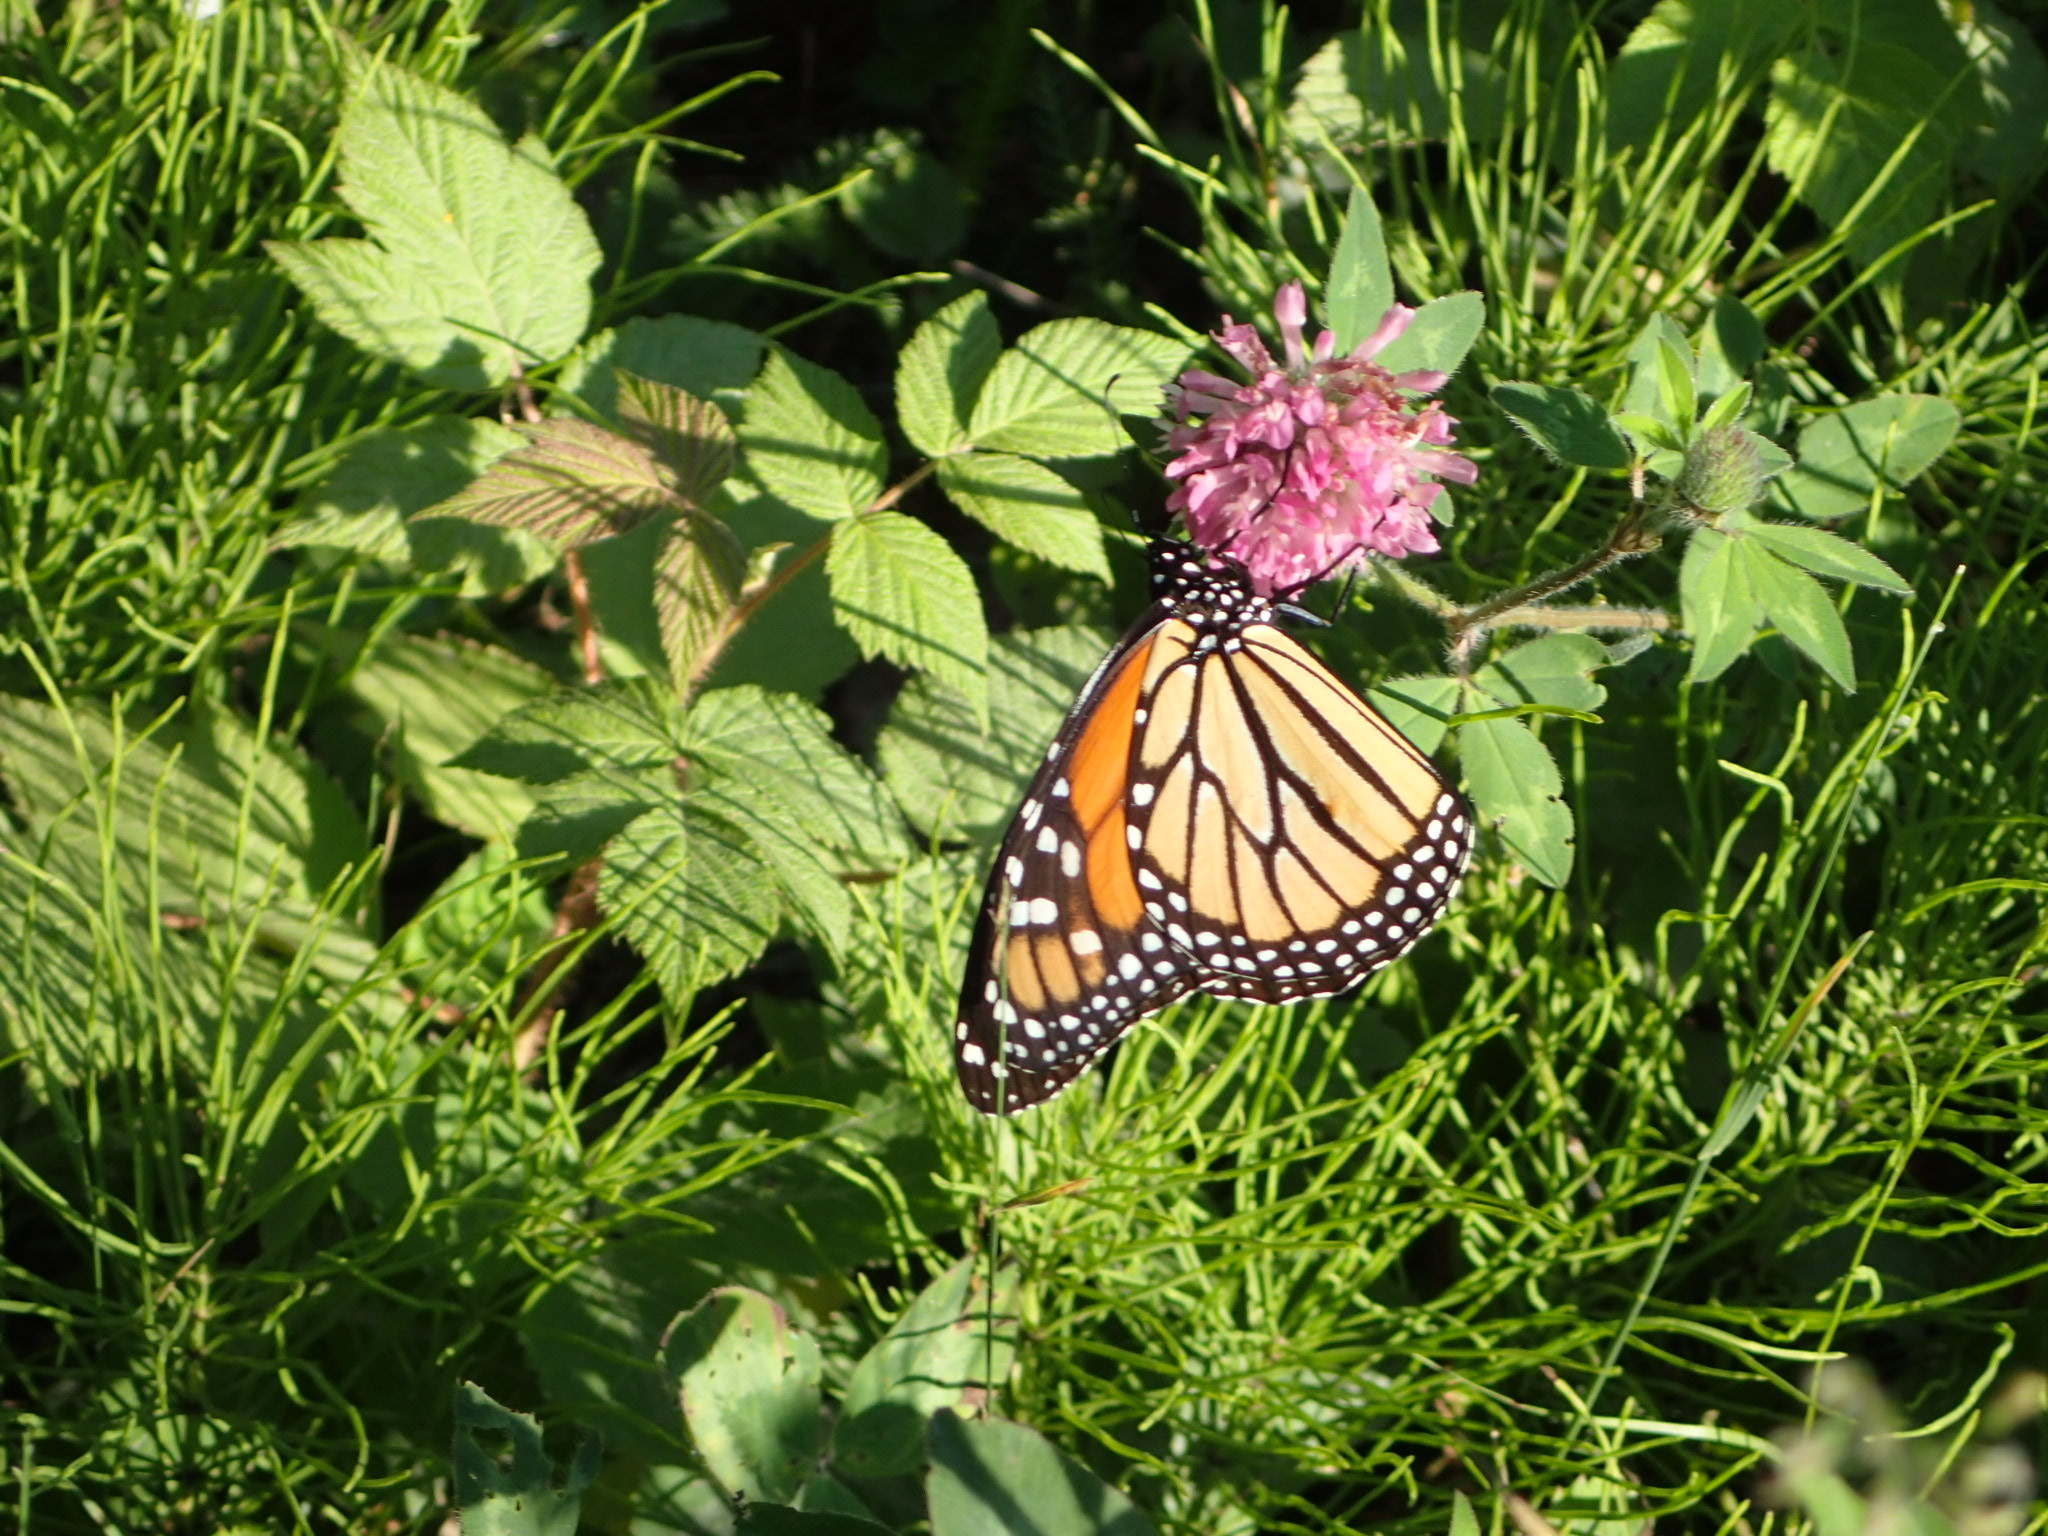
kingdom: Animalia
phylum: Arthropoda
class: Insecta
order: Lepidoptera
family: Nymphalidae
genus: Danaus
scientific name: Danaus plexippus
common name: Monarch
